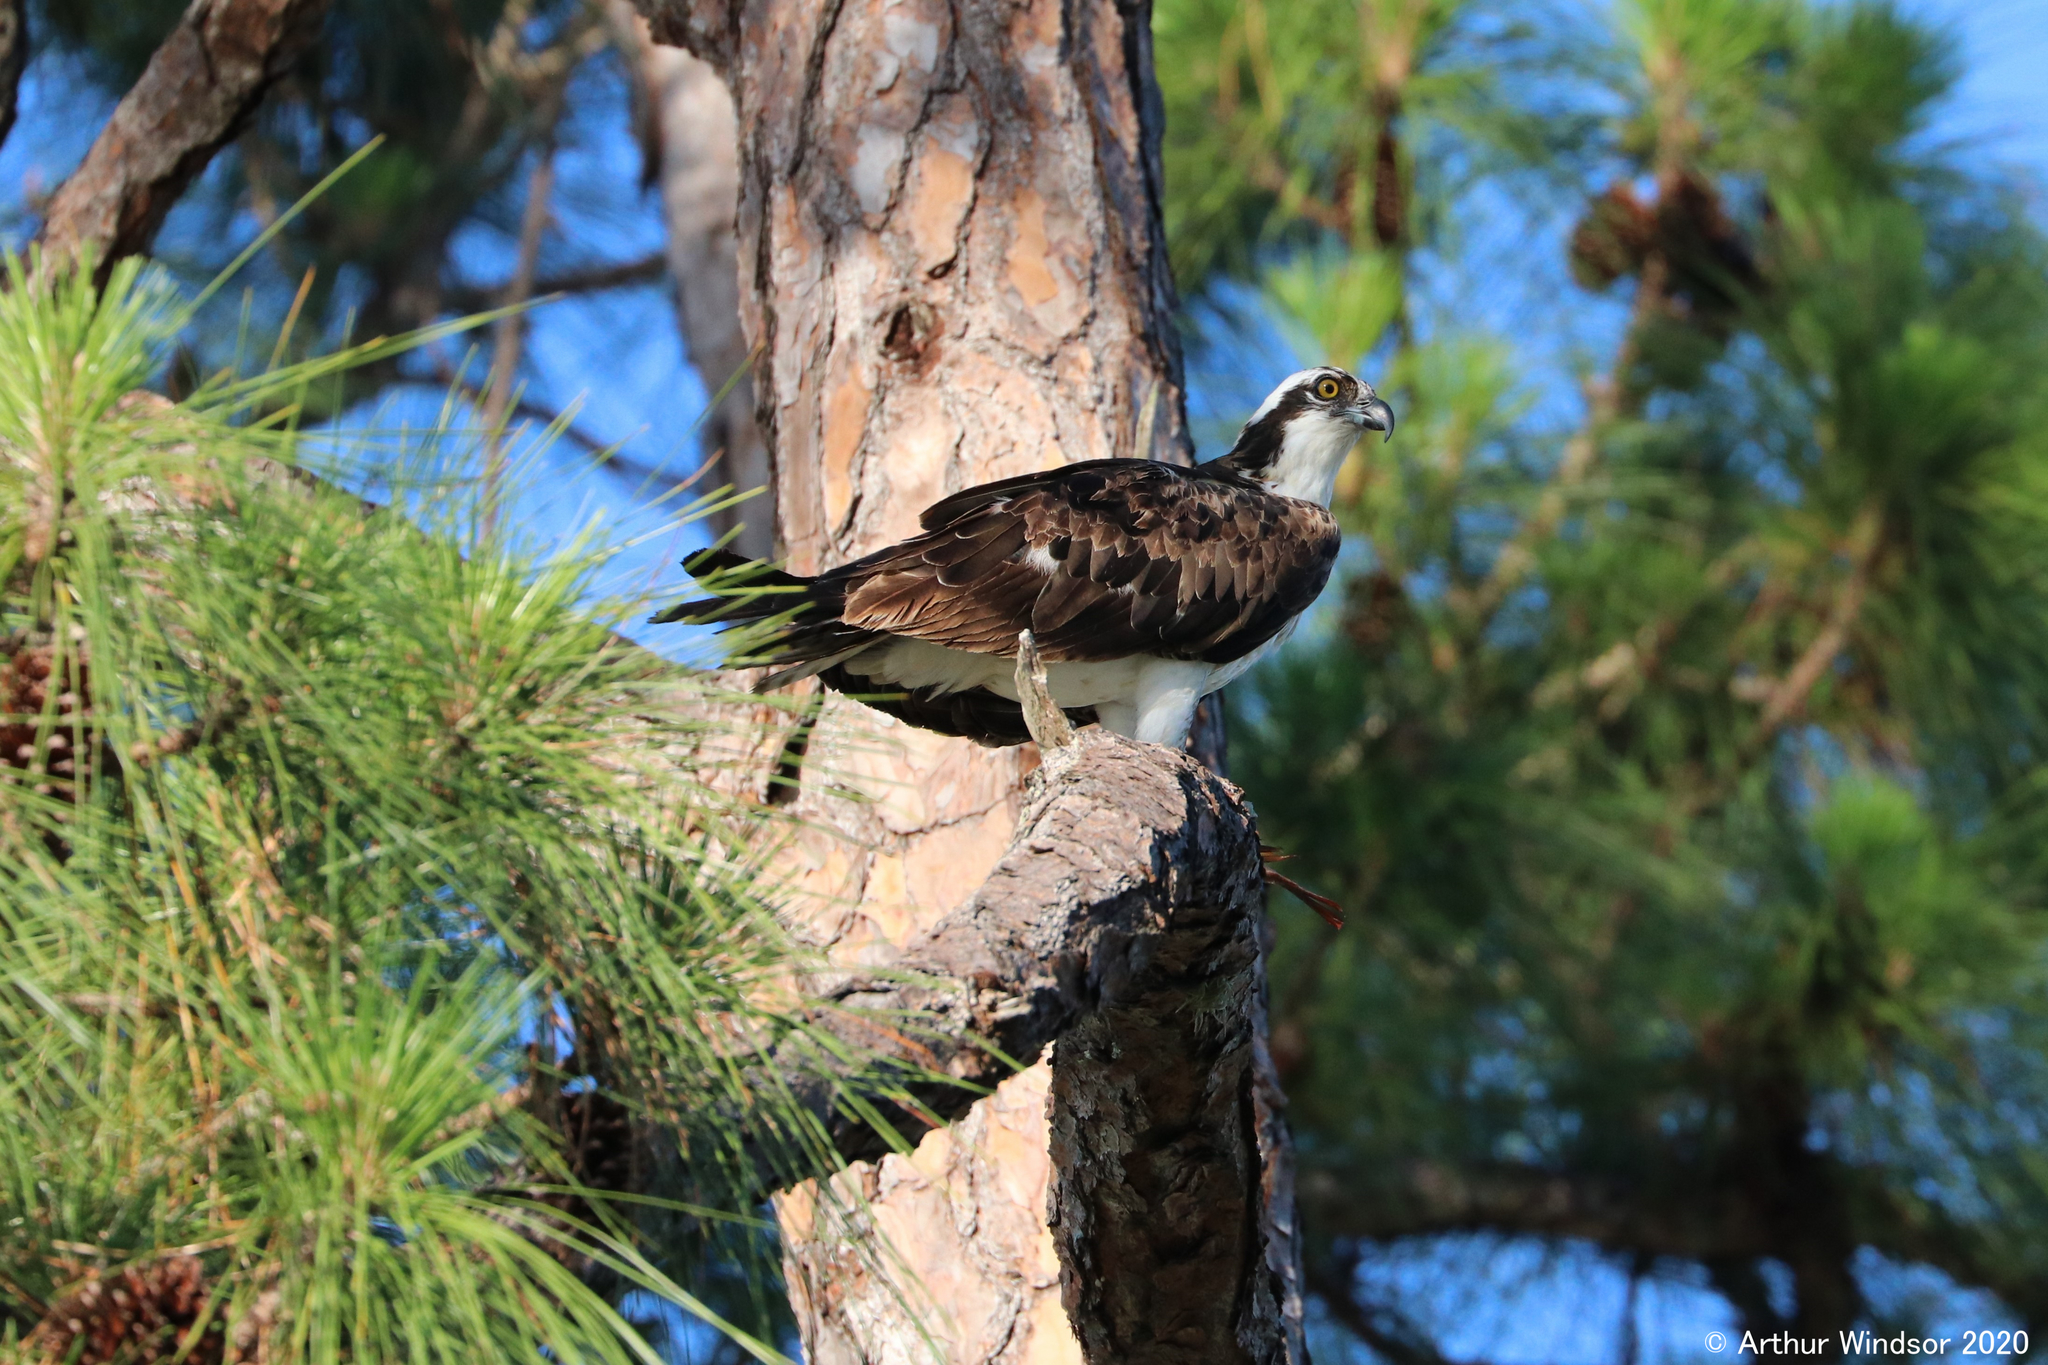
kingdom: Animalia
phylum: Chordata
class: Aves
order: Accipitriformes
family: Pandionidae
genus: Pandion
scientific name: Pandion haliaetus
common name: Osprey
